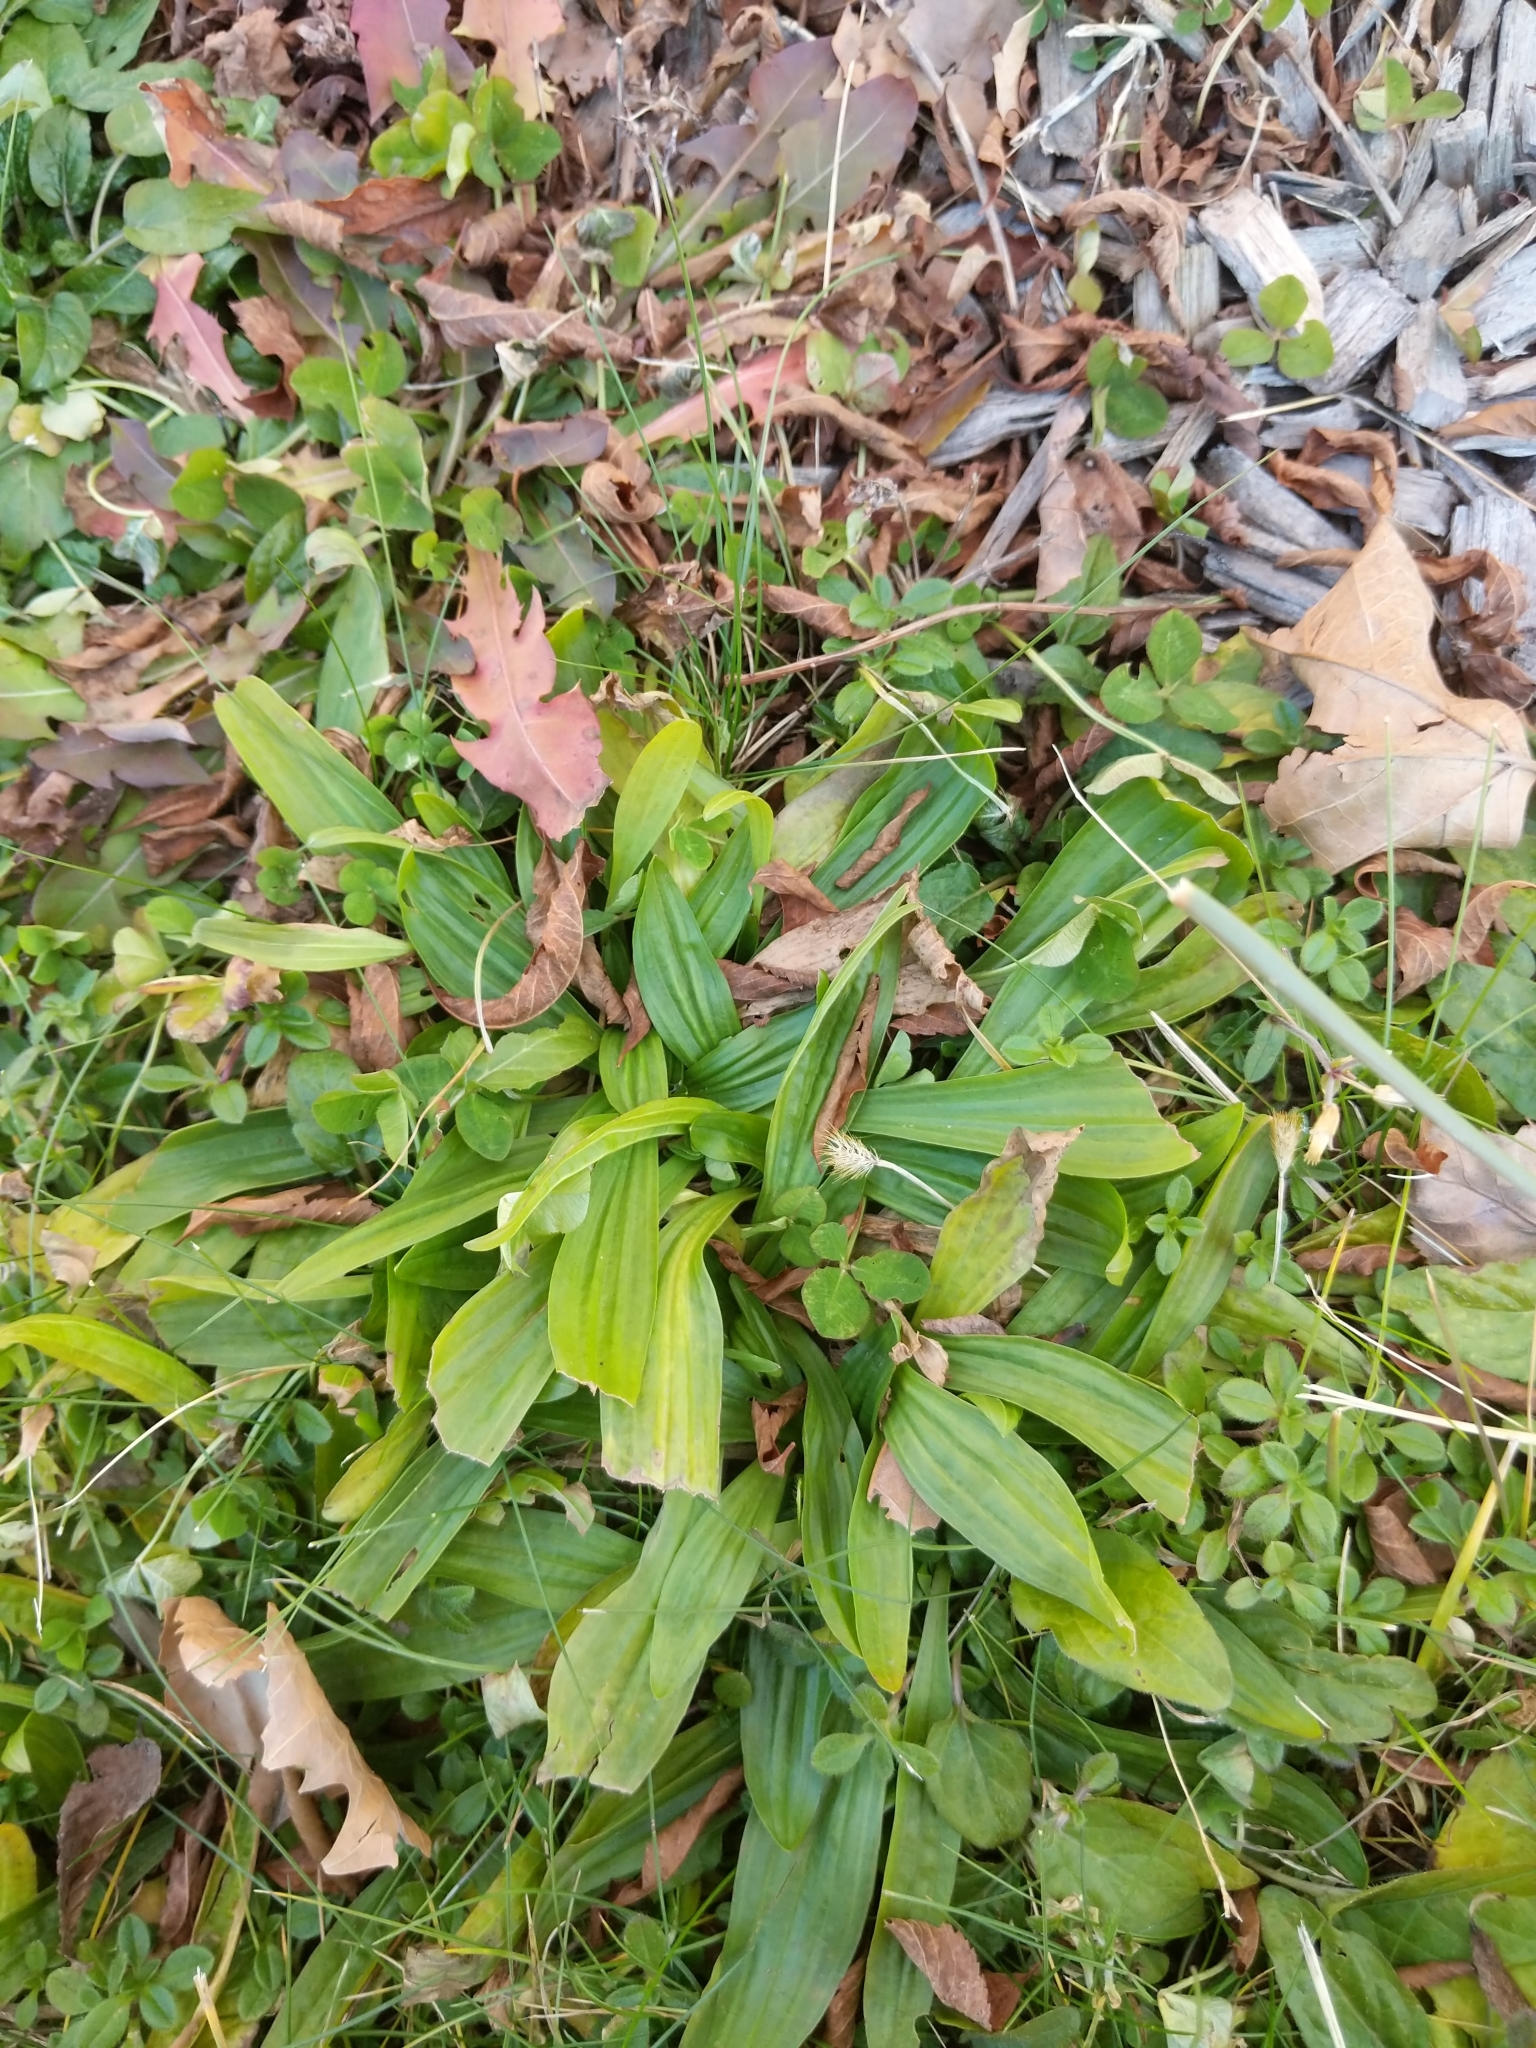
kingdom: Plantae
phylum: Tracheophyta
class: Magnoliopsida
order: Lamiales
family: Plantaginaceae
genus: Plantago
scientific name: Plantago lanceolata
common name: Ribwort plantain
